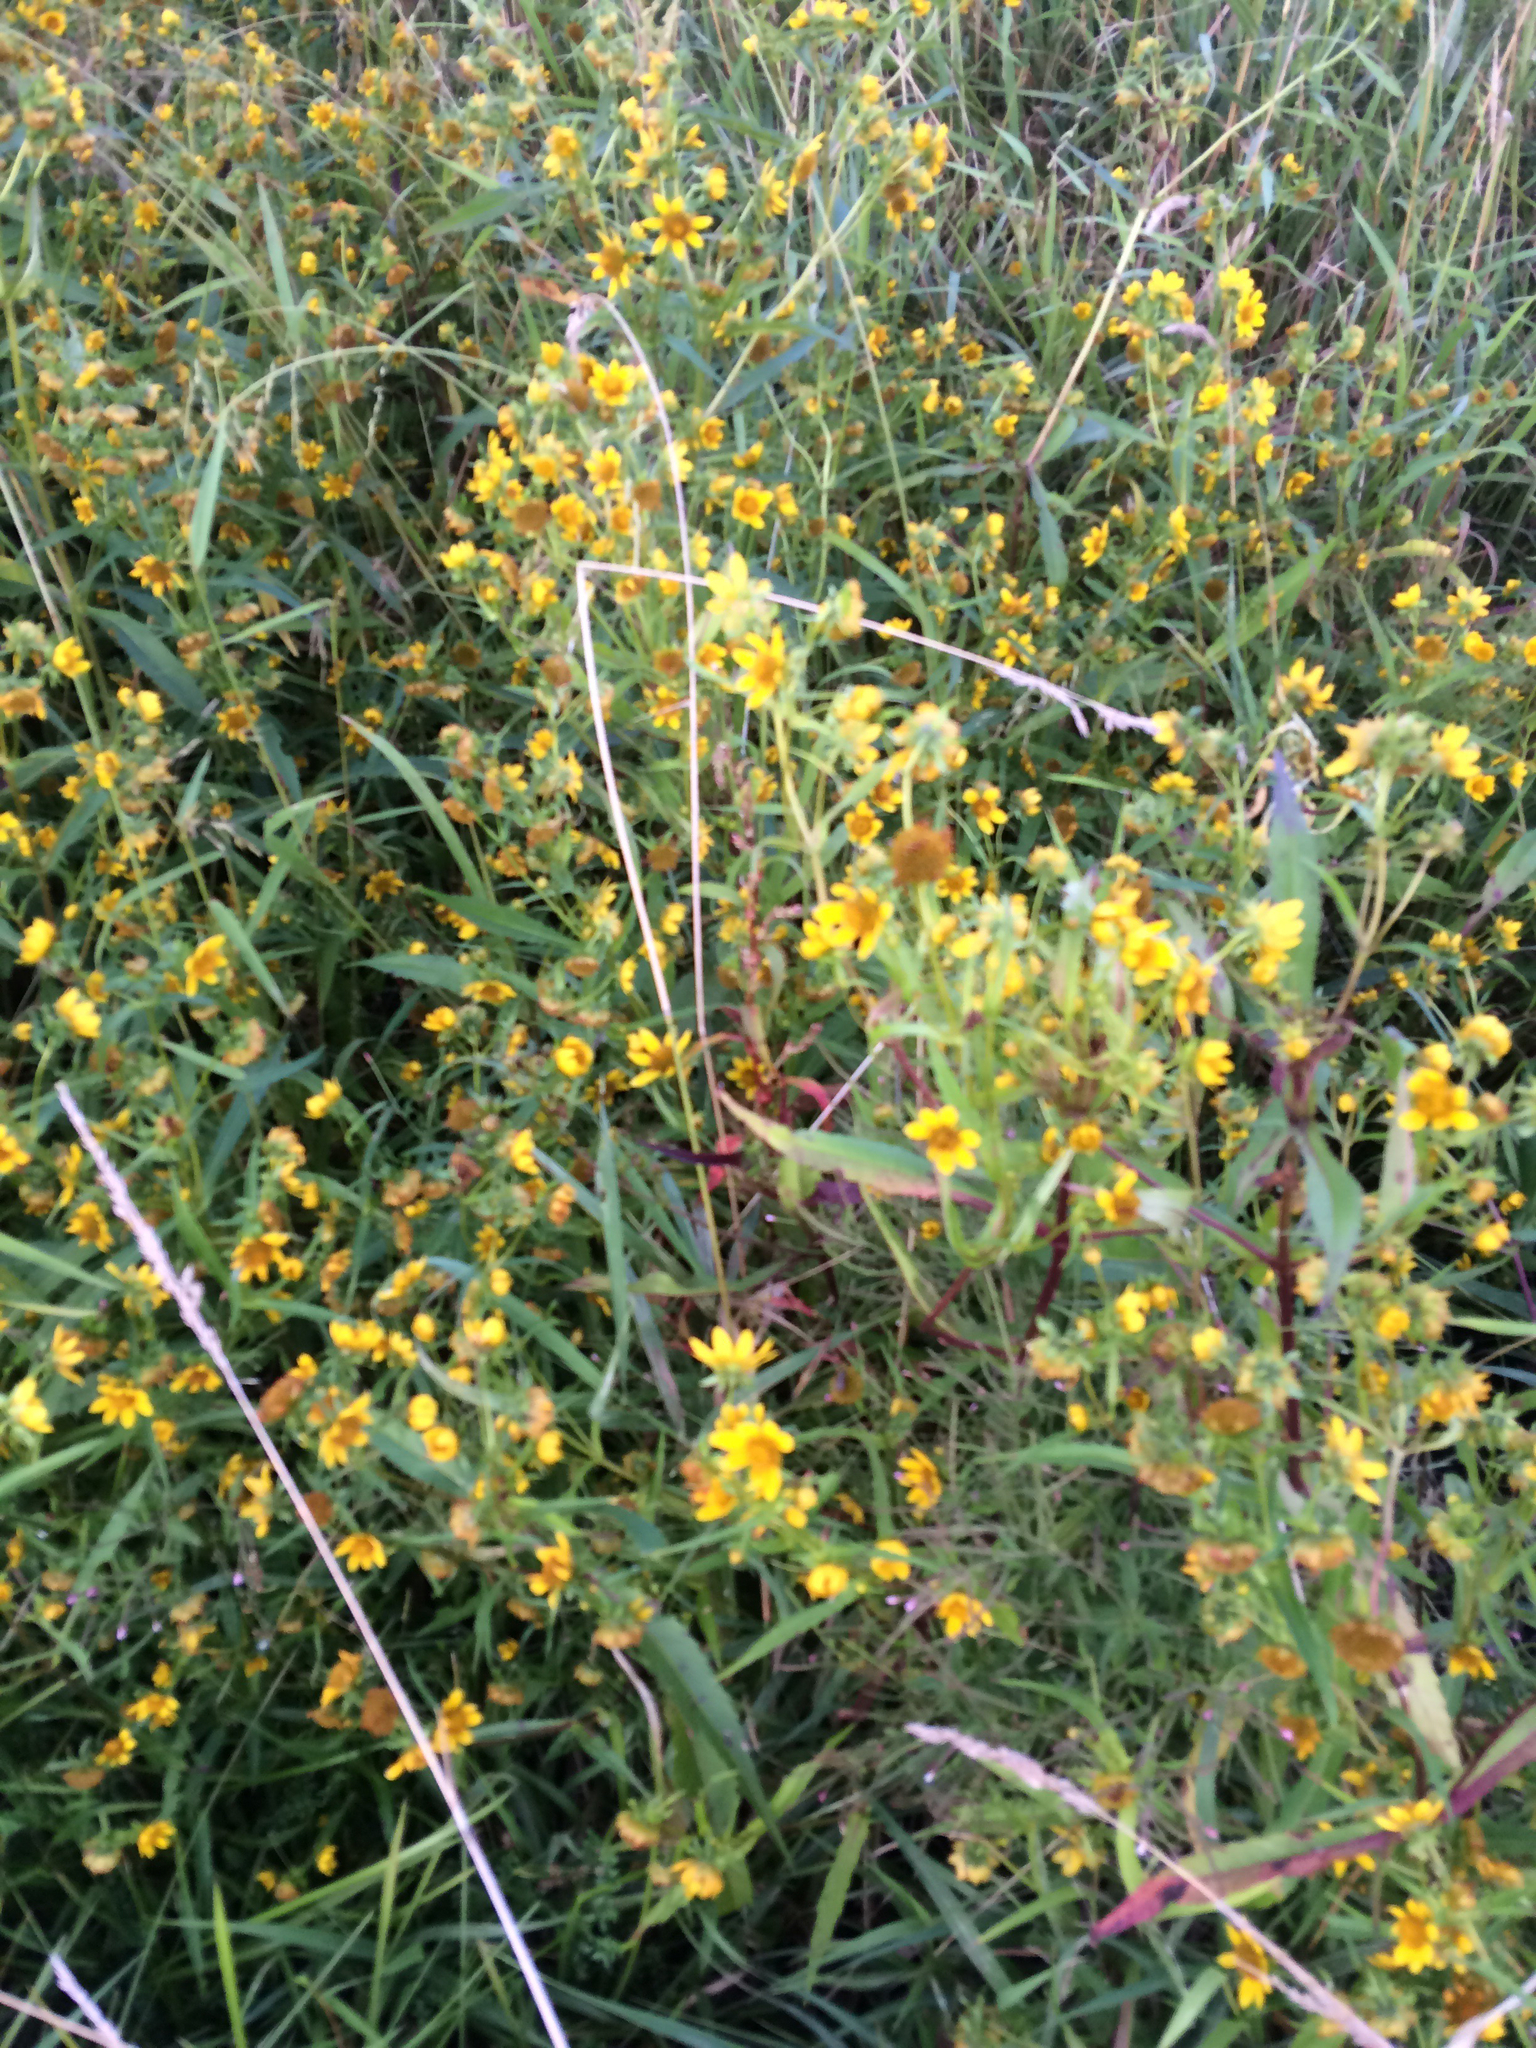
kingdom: Plantae
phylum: Tracheophyta
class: Magnoliopsida
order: Asterales
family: Asteraceae
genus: Bidens
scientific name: Bidens cernua
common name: Nodding bur-marigold
